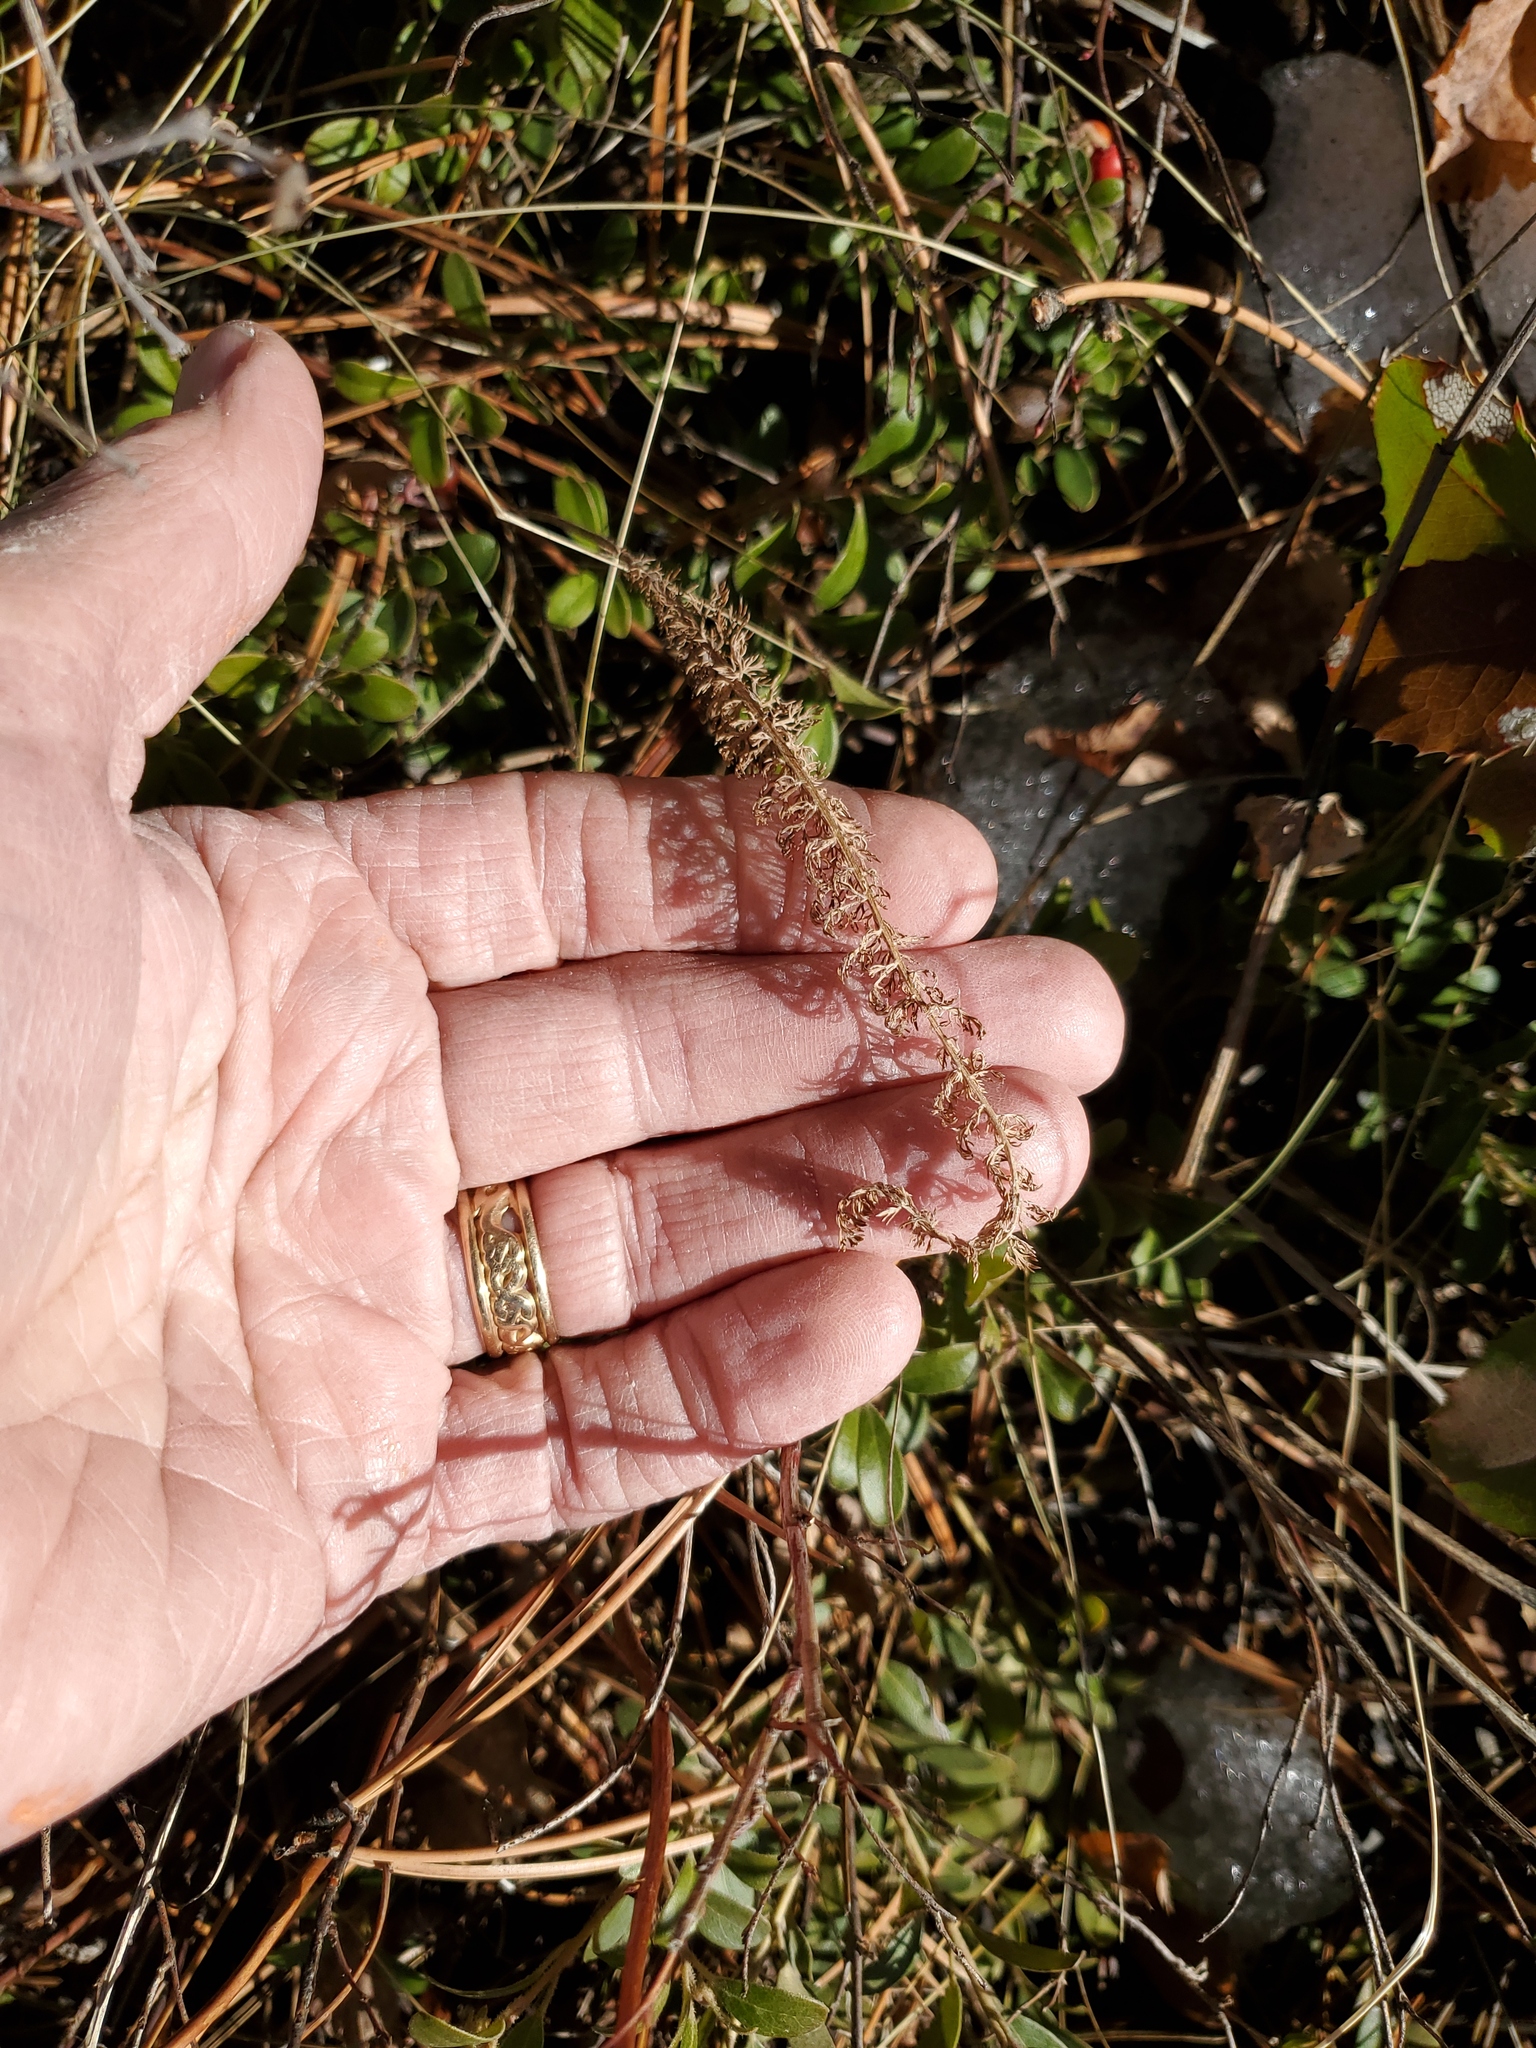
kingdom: Plantae
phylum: Tracheophyta
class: Magnoliopsida
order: Asterales
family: Asteraceae
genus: Achillea
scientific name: Achillea millefolium
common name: Yarrow
